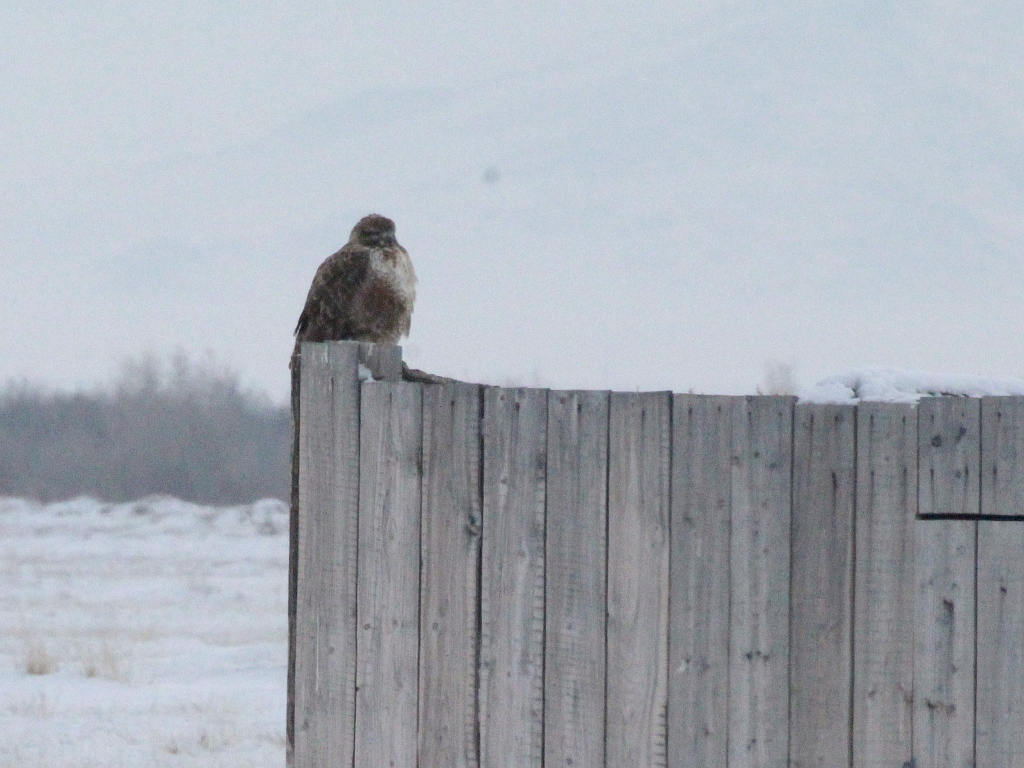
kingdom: Animalia
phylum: Chordata
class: Aves
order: Accipitriformes
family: Accipitridae
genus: Buteo
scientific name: Buteo hemilasius
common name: Upland buzzard
